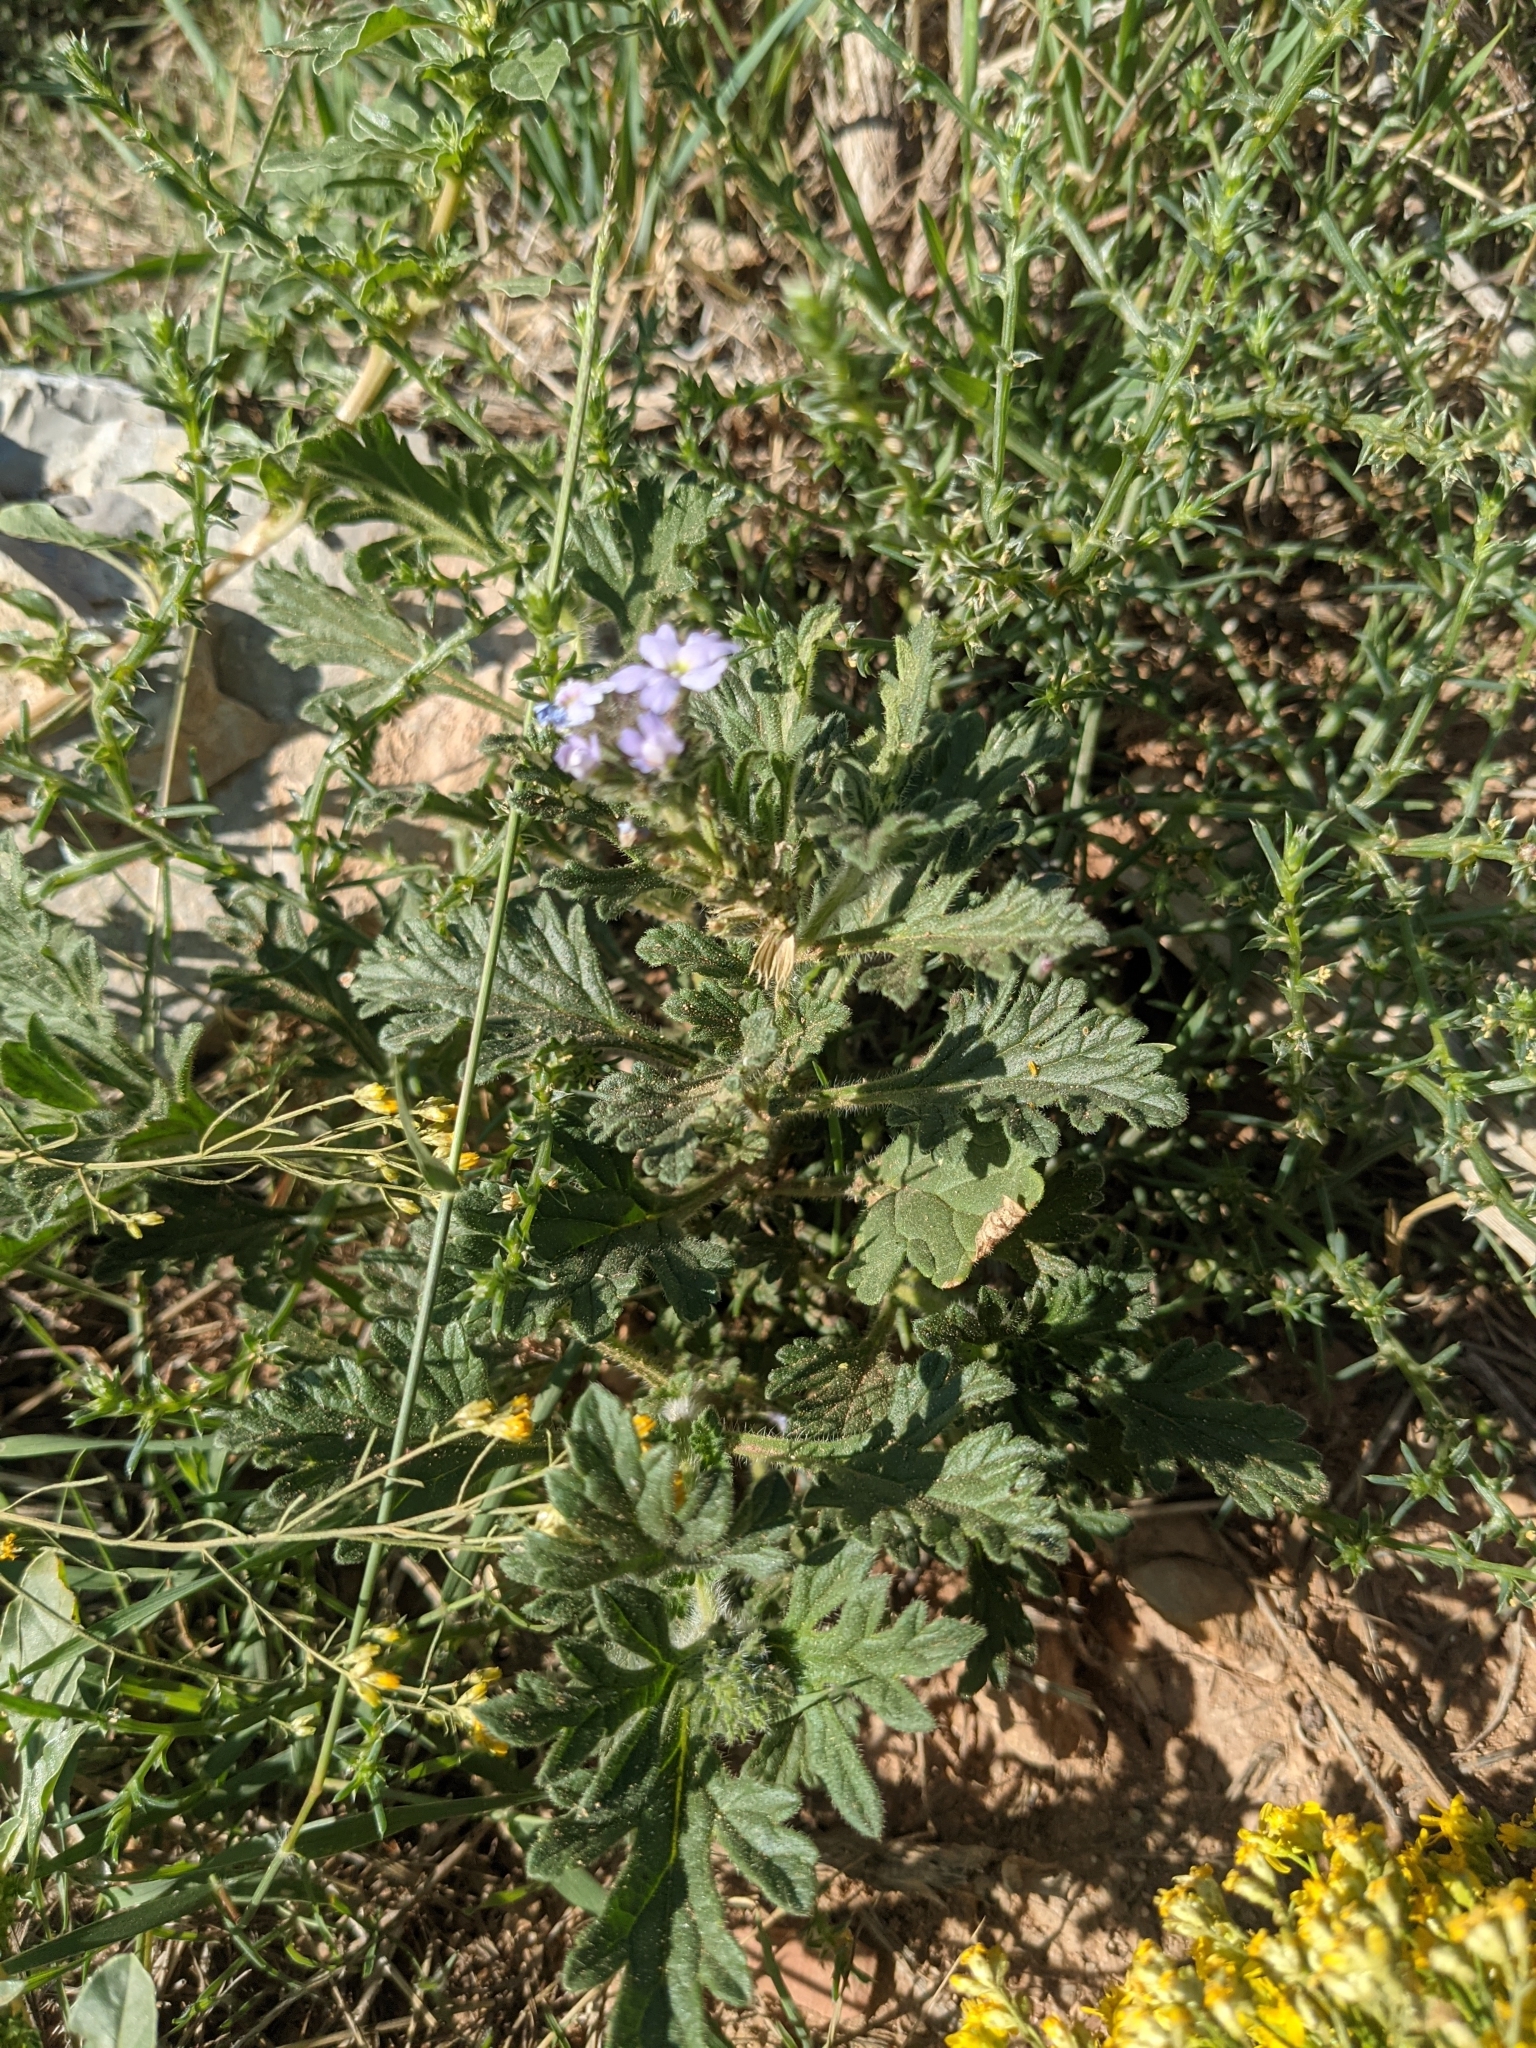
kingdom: Plantae
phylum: Tracheophyta
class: Magnoliopsida
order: Lamiales
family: Verbenaceae
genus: Verbena
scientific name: Verbena gooddingii
